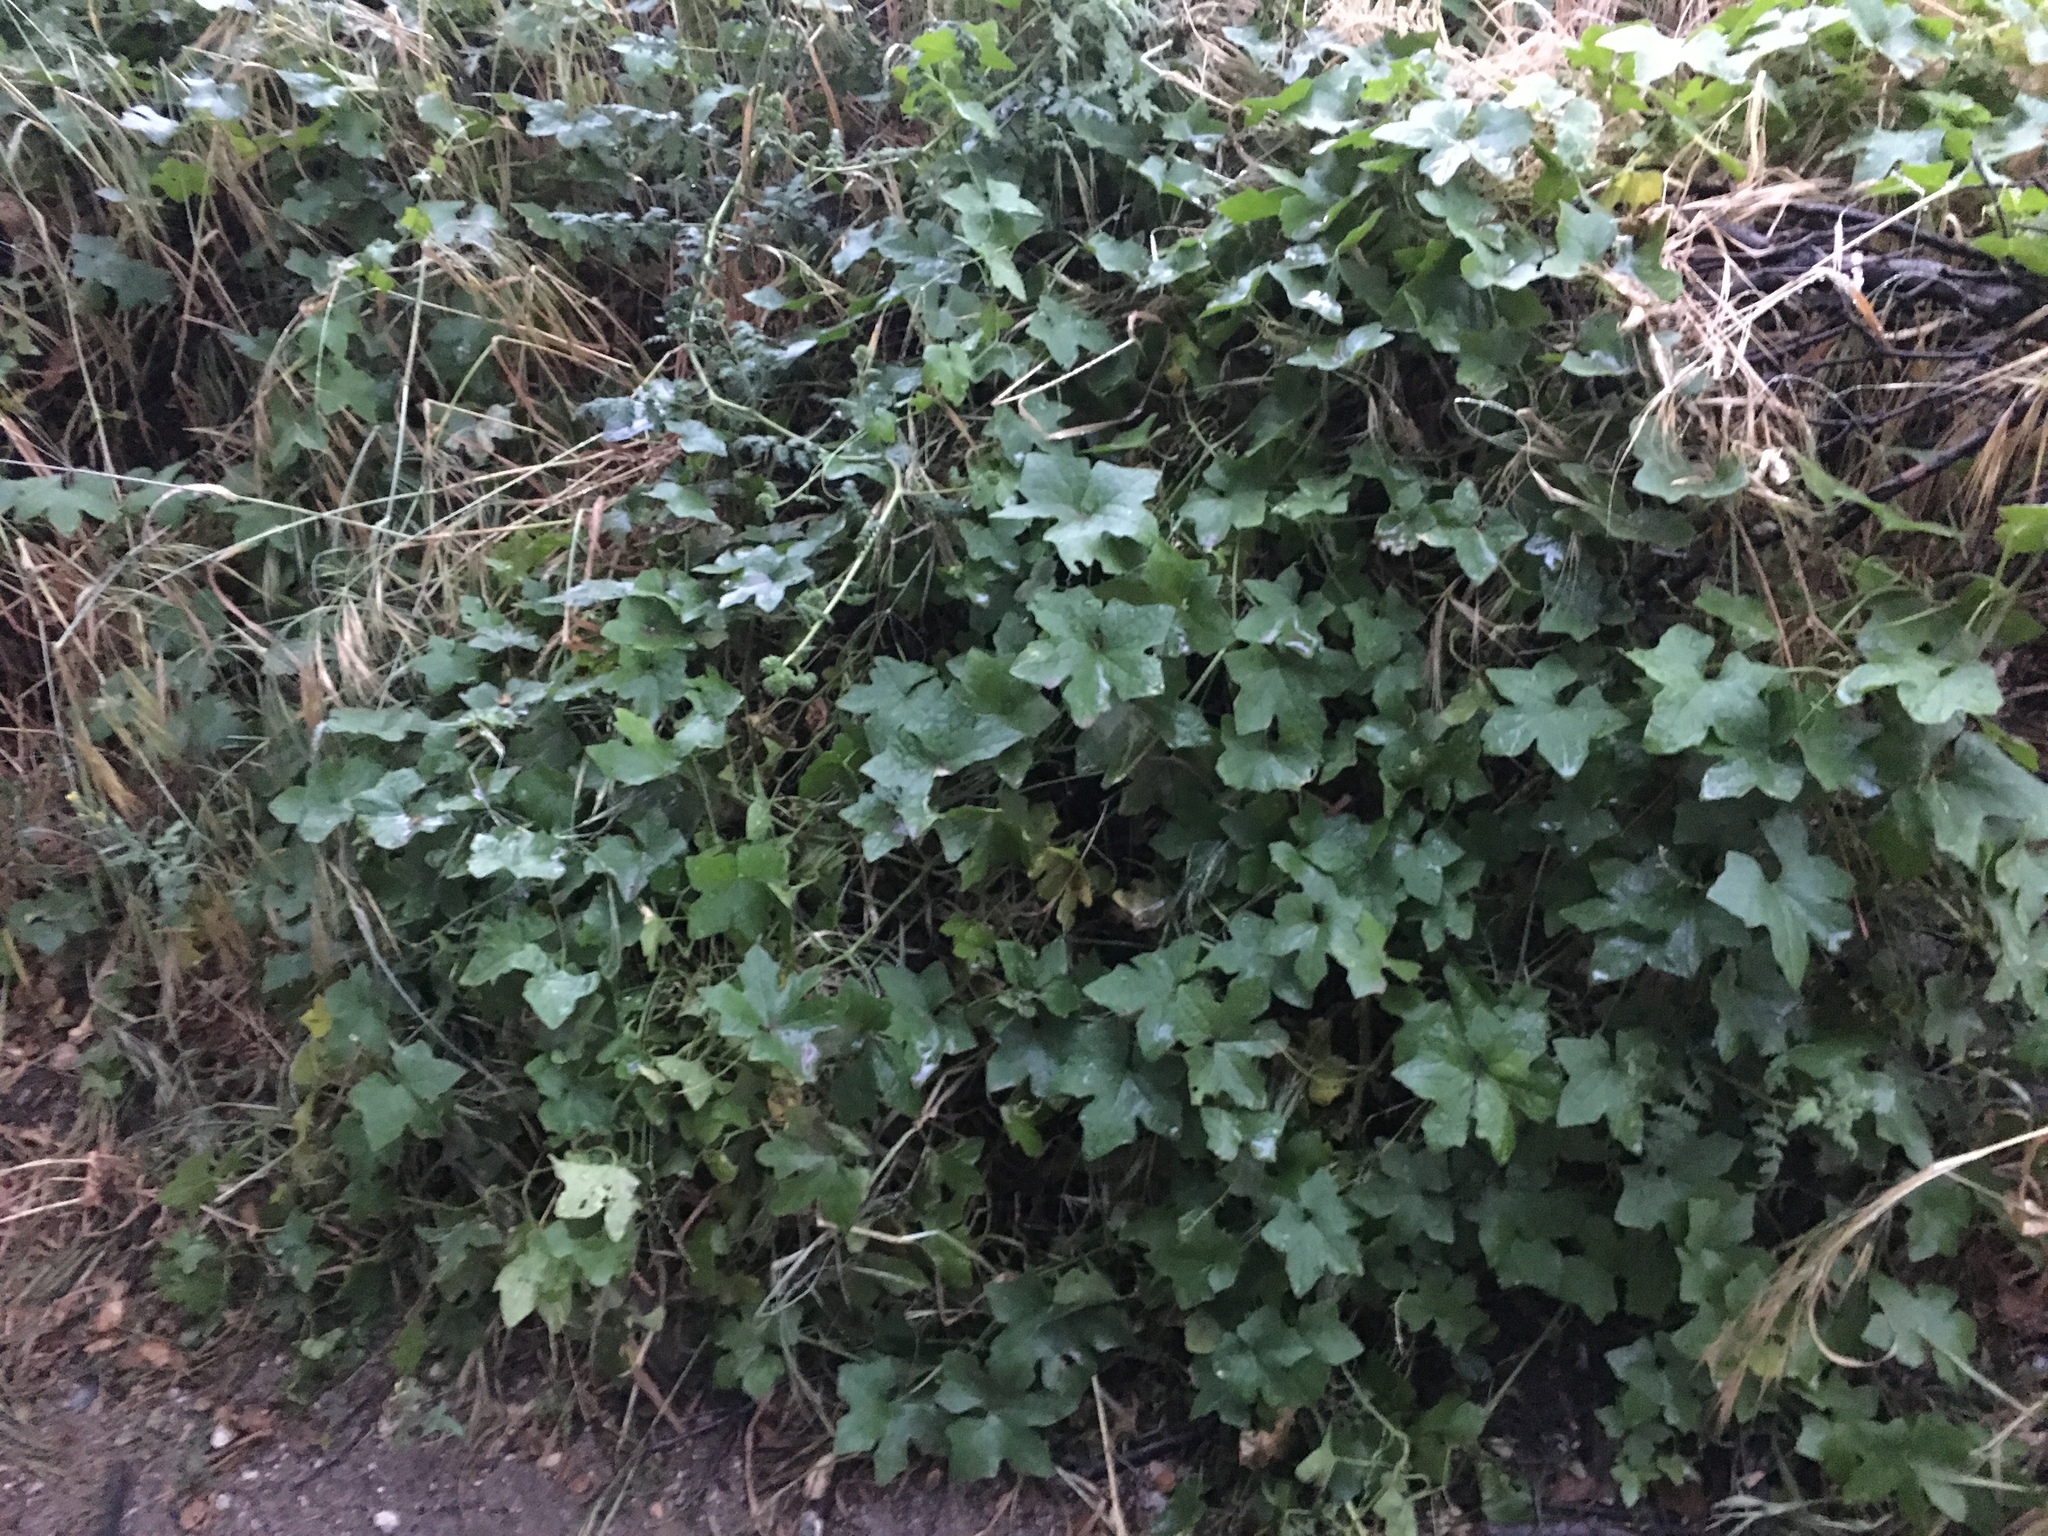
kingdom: Plantae
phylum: Tracheophyta
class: Magnoliopsida
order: Cucurbitales
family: Cucurbitaceae
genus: Marah
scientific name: Marah macrocarpa
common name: Cucamonga manroot
